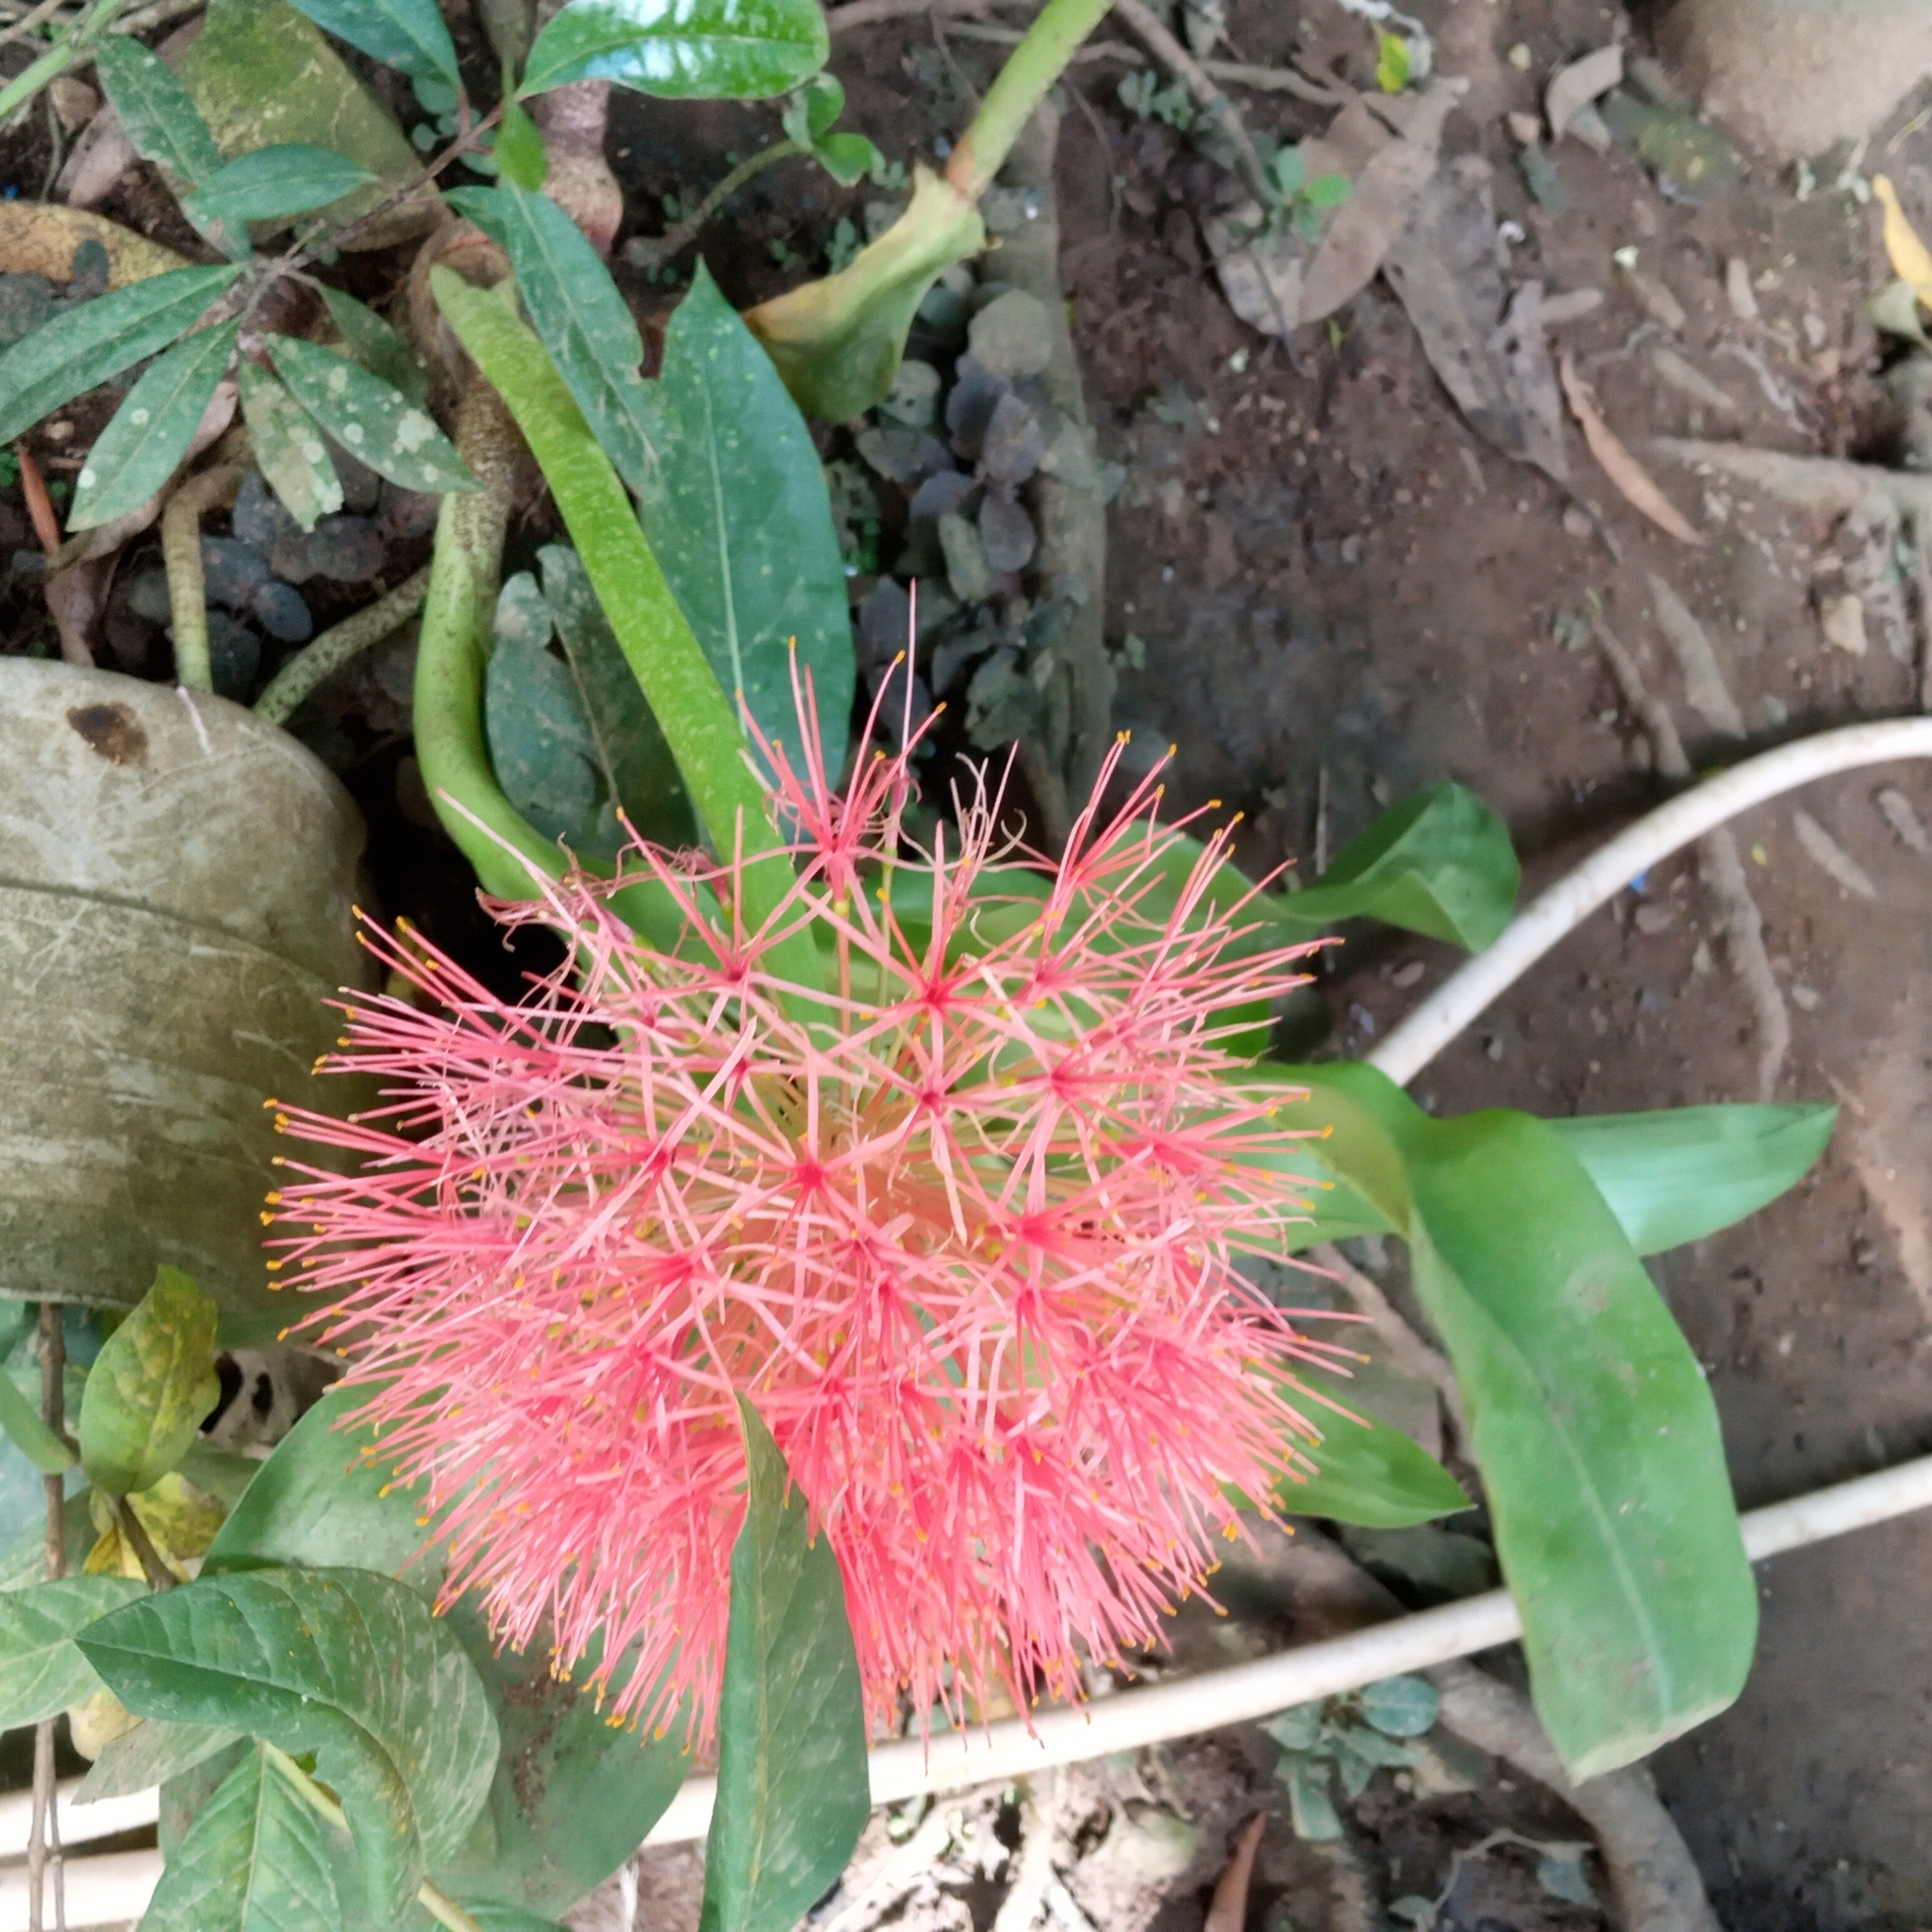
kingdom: Plantae
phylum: Tracheophyta
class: Liliopsida
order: Asparagales
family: Amaryllidaceae
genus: Scadoxus
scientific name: Scadoxus multiflorus
